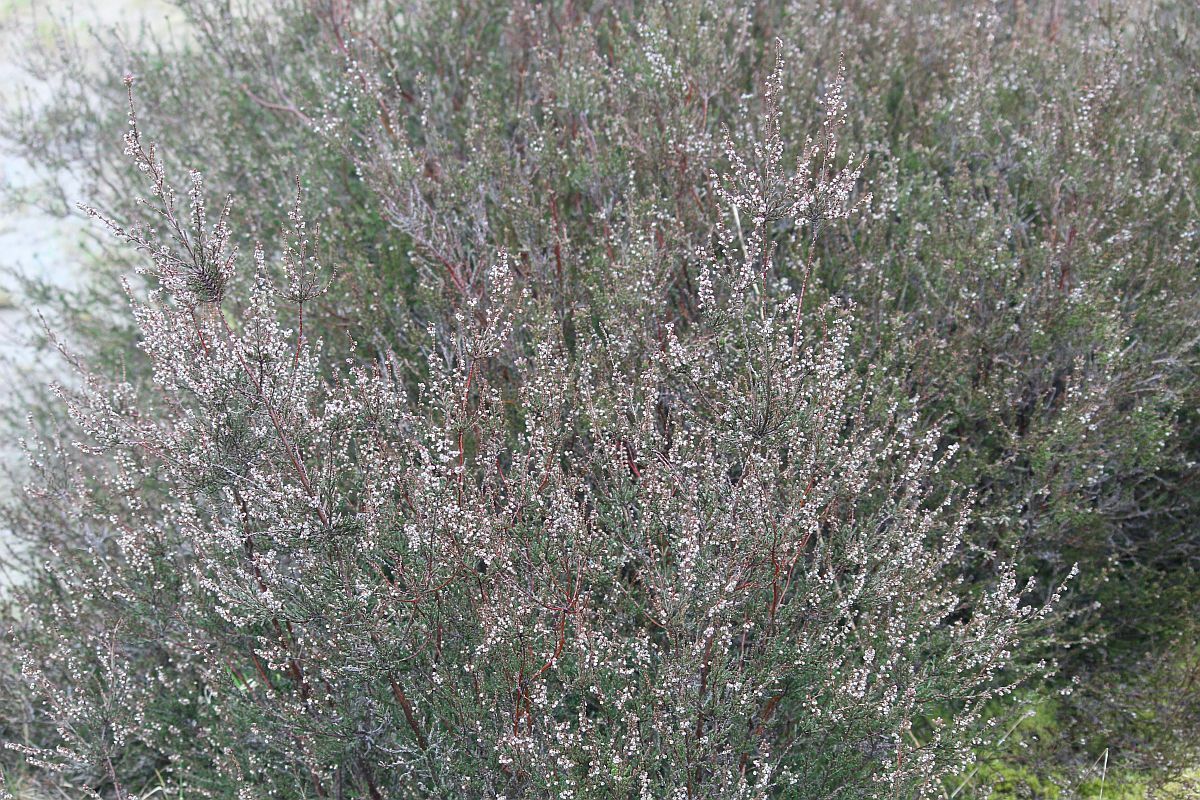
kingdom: Plantae
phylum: Tracheophyta
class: Magnoliopsida
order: Ericales
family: Ericaceae
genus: Calluna
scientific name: Calluna vulgaris
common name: Heather
